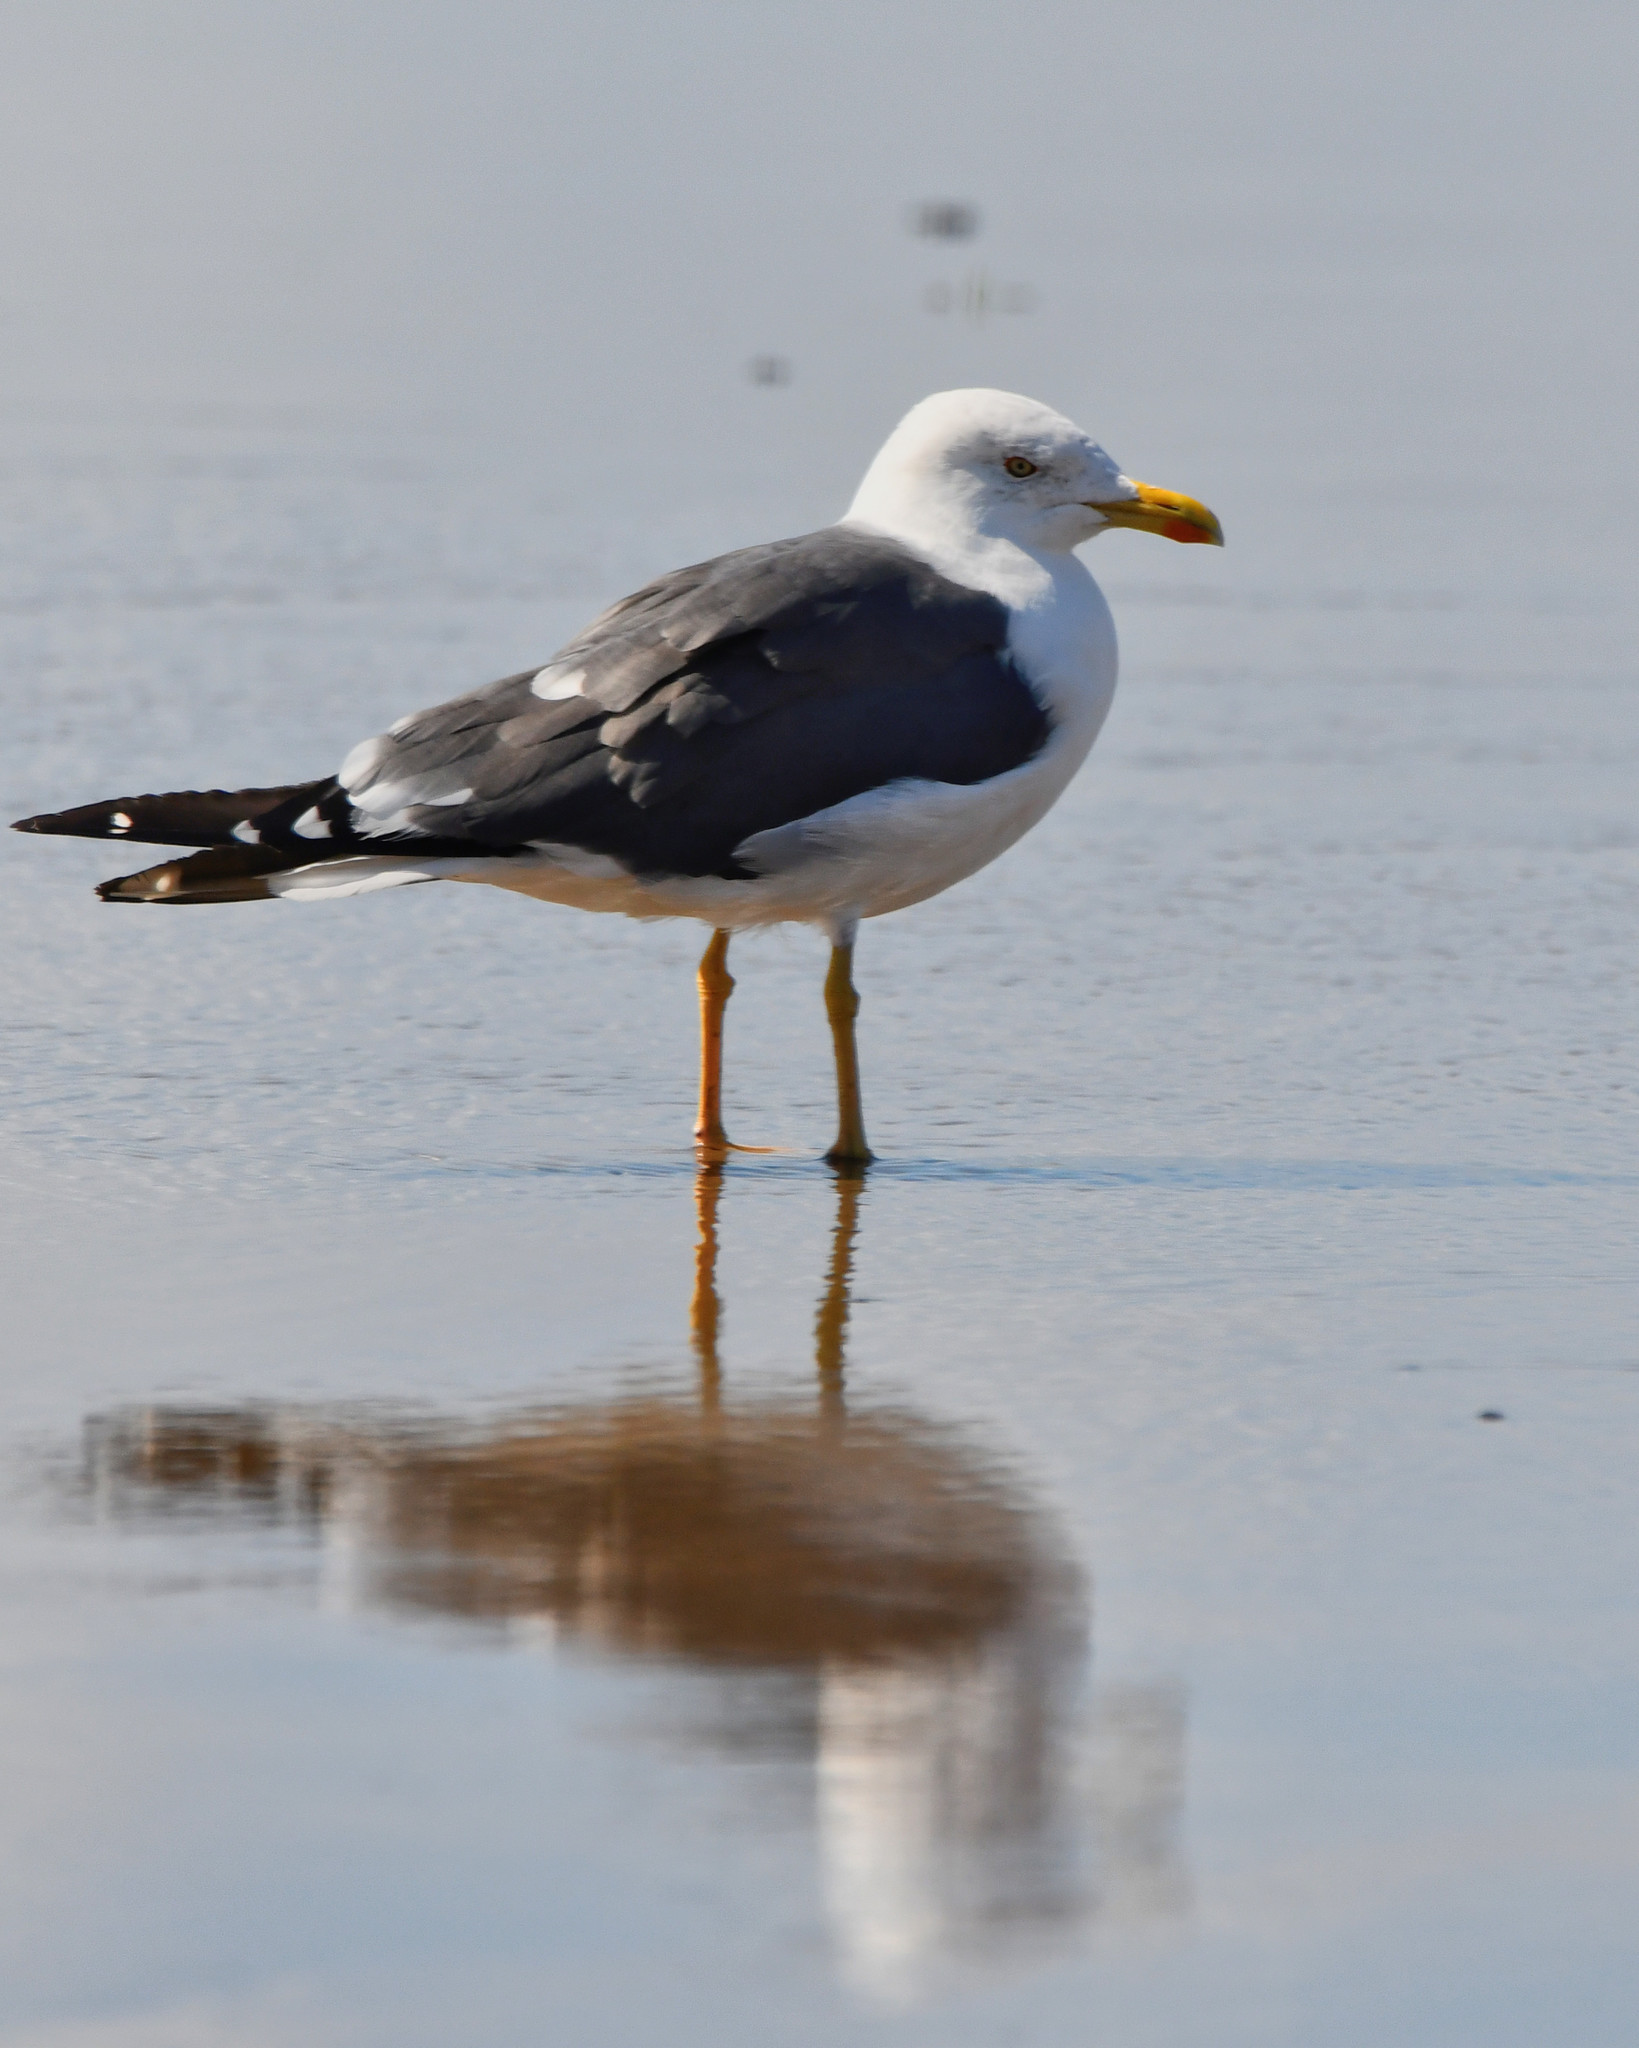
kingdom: Animalia
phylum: Chordata
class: Aves
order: Charadriiformes
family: Laridae
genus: Larus
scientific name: Larus fuscus
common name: Lesser black-backed gull
